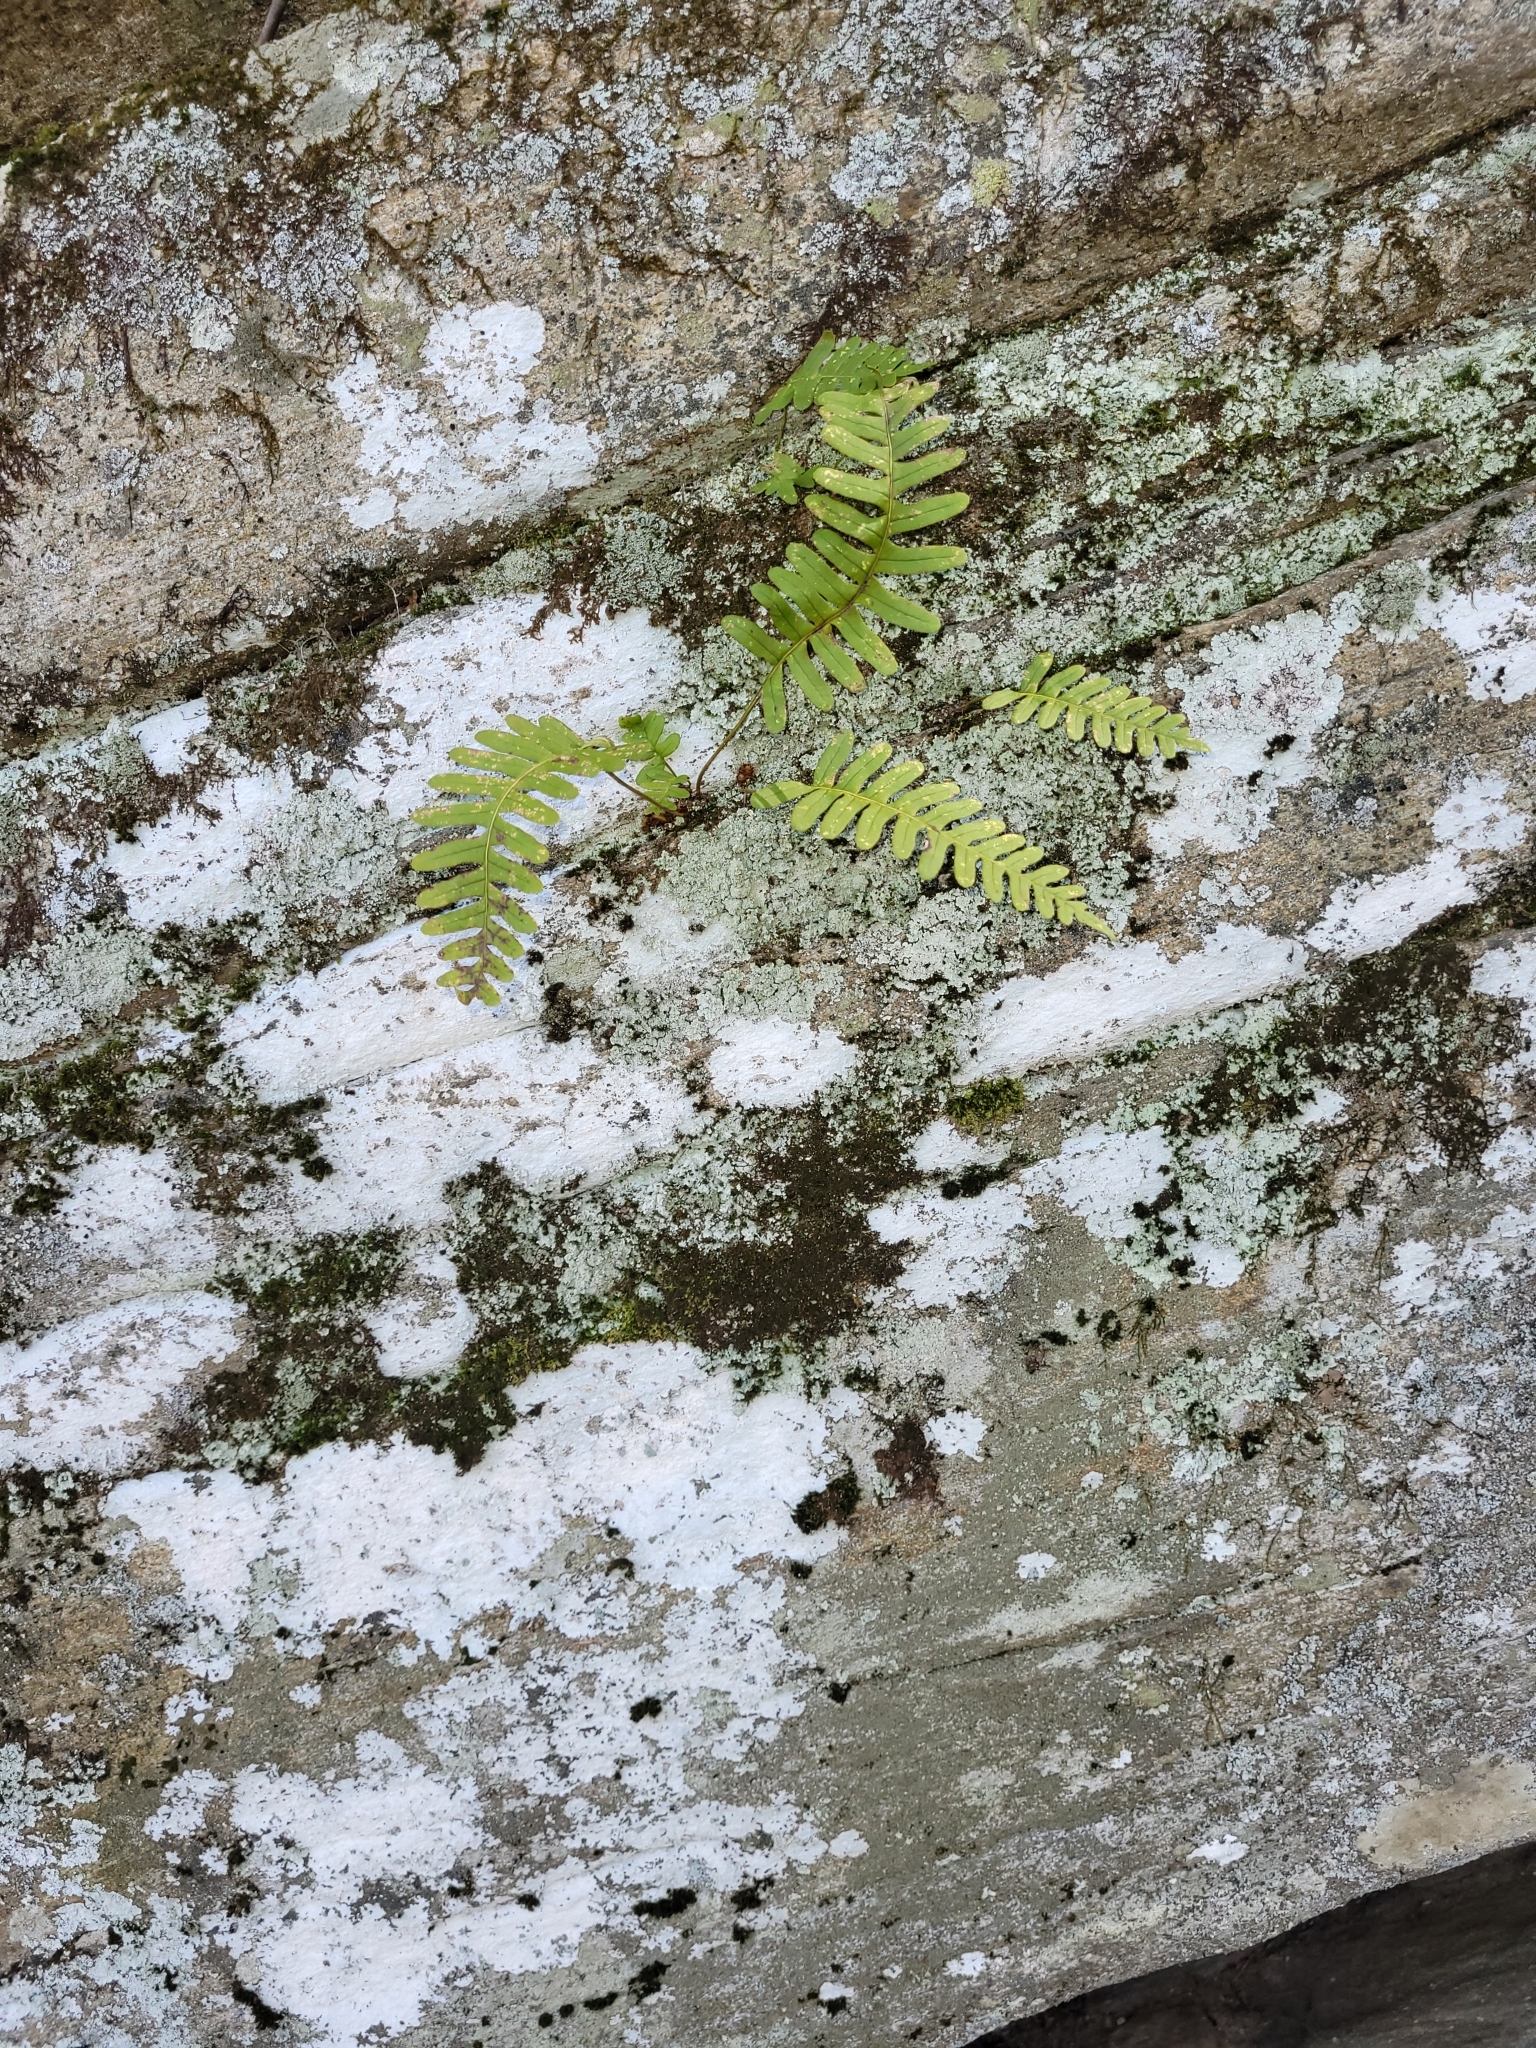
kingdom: Plantae
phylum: Tracheophyta
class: Polypodiopsida
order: Polypodiales
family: Polypodiaceae
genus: Polypodium
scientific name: Polypodium virginianum
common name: American wall fern
